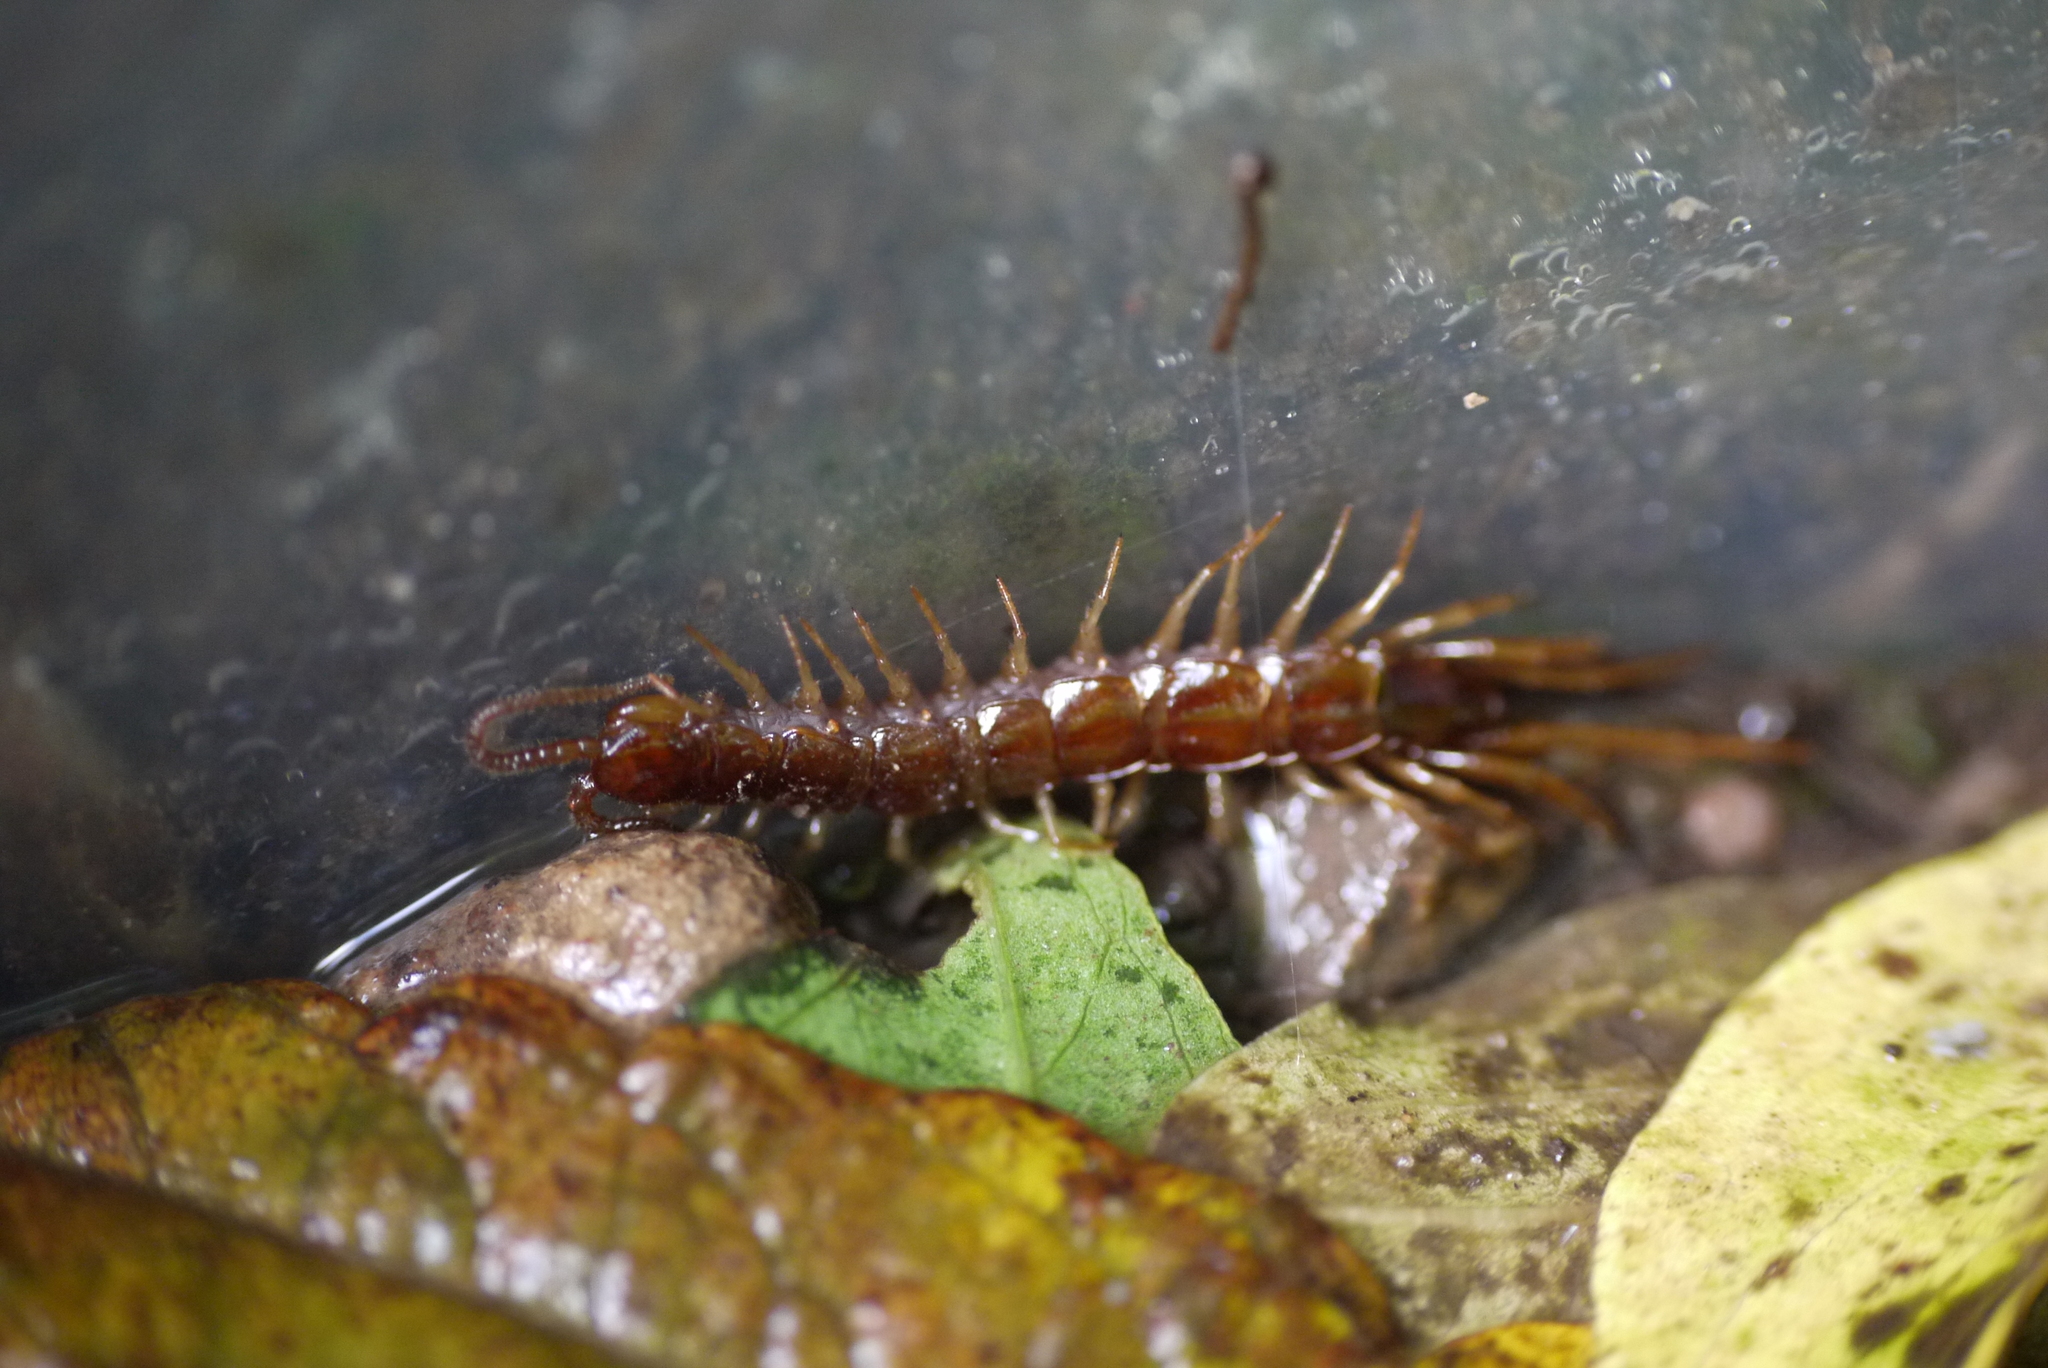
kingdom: Animalia
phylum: Arthropoda
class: Chilopoda
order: Lithobiomorpha
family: Lithobiidae
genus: Lithobius
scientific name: Lithobius forficatus
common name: Centipede
